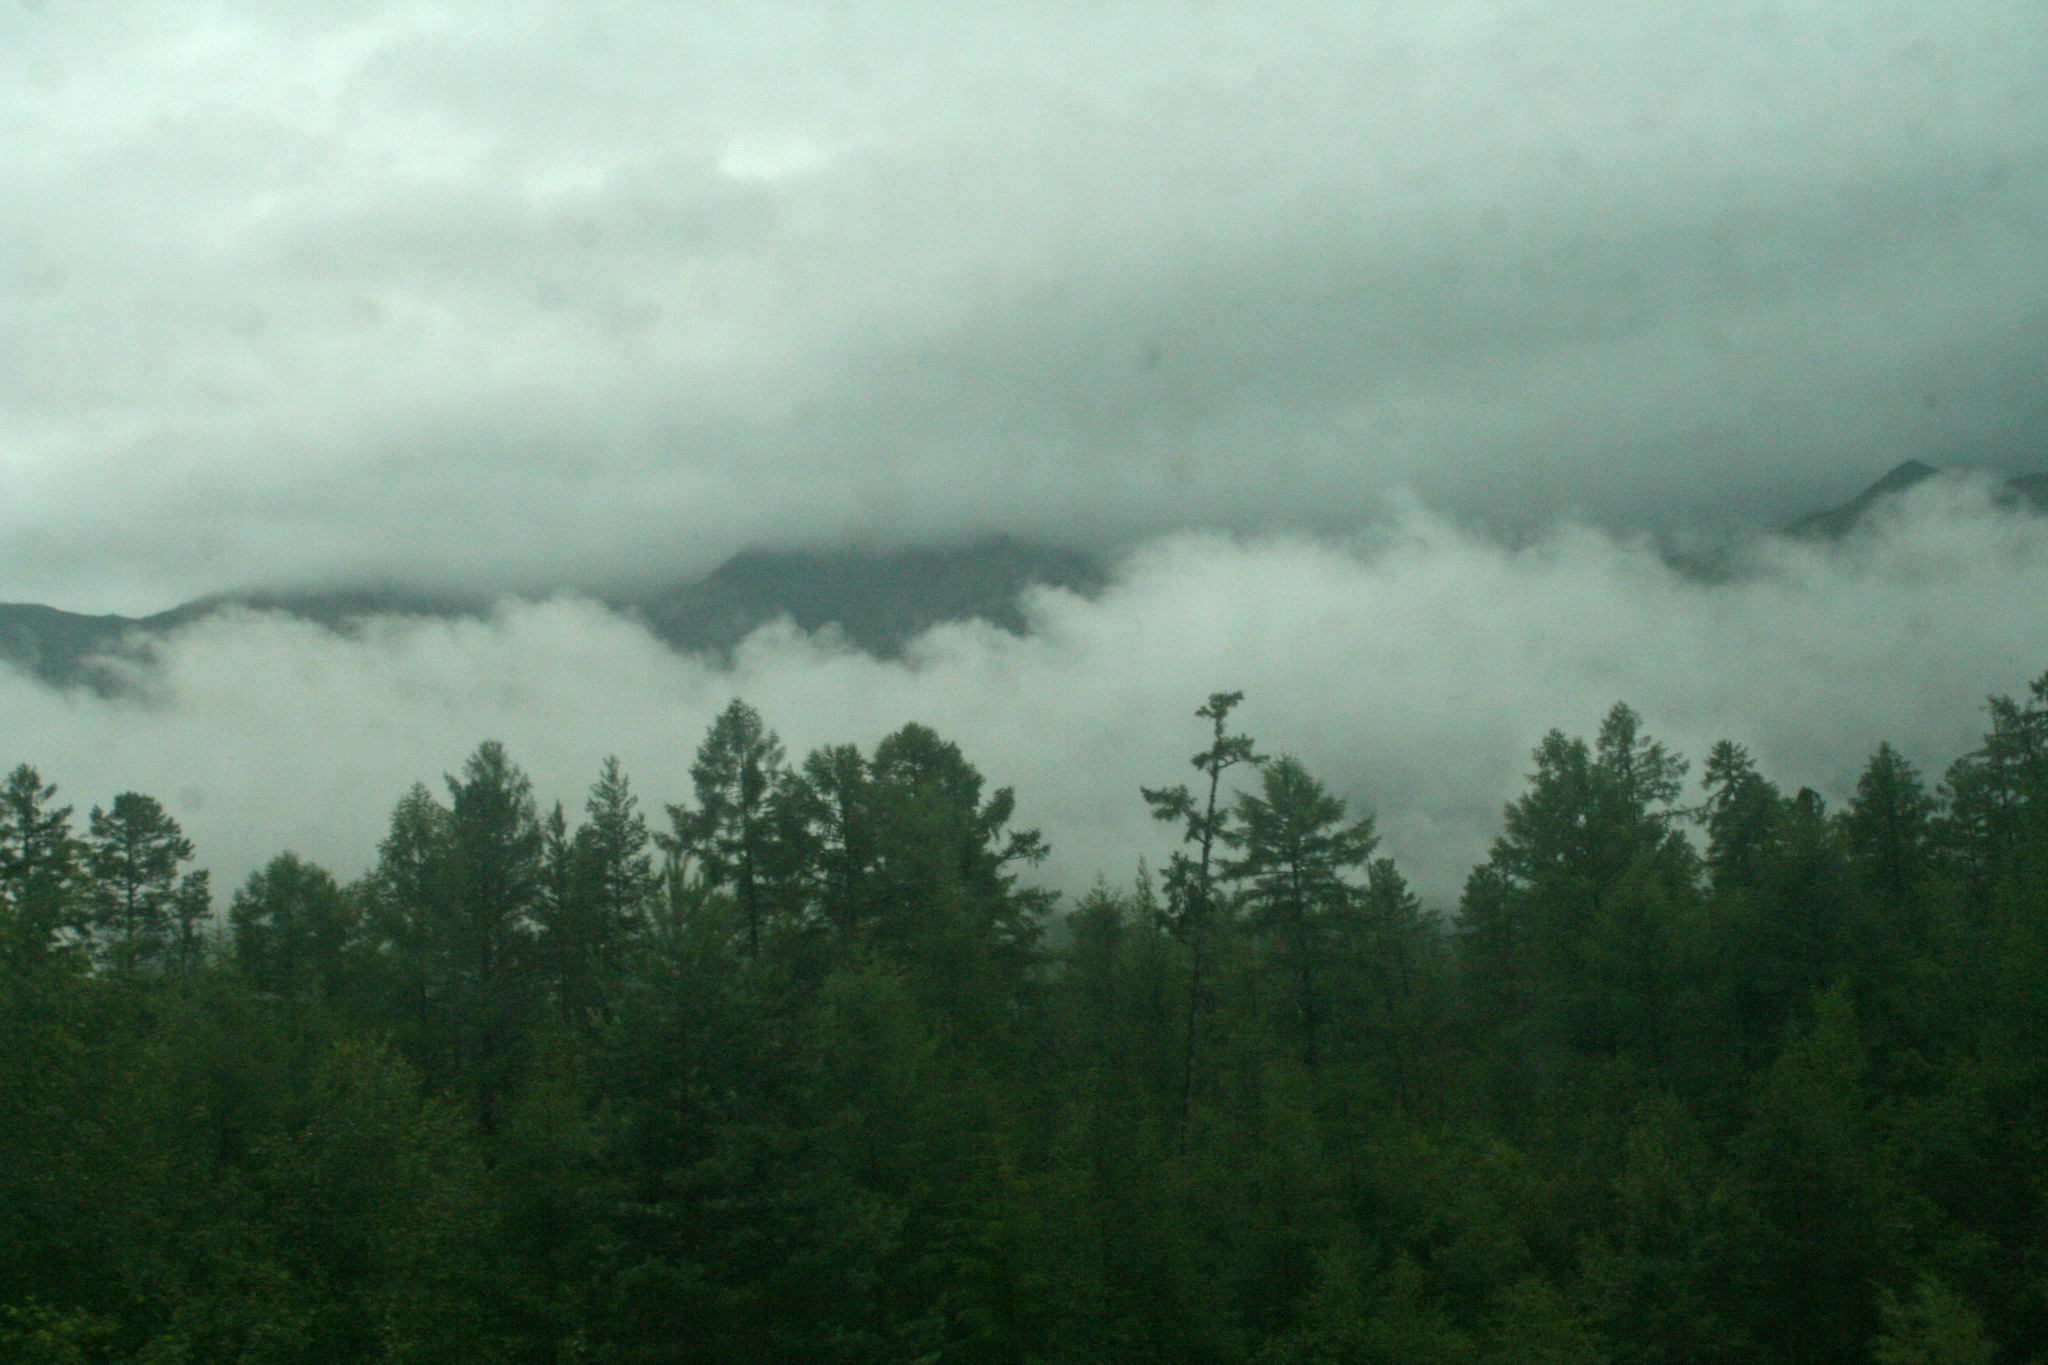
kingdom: Plantae
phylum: Tracheophyta
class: Pinopsida
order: Pinales
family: Pinaceae
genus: Pinus
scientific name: Pinus sylvestris
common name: Scots pine
